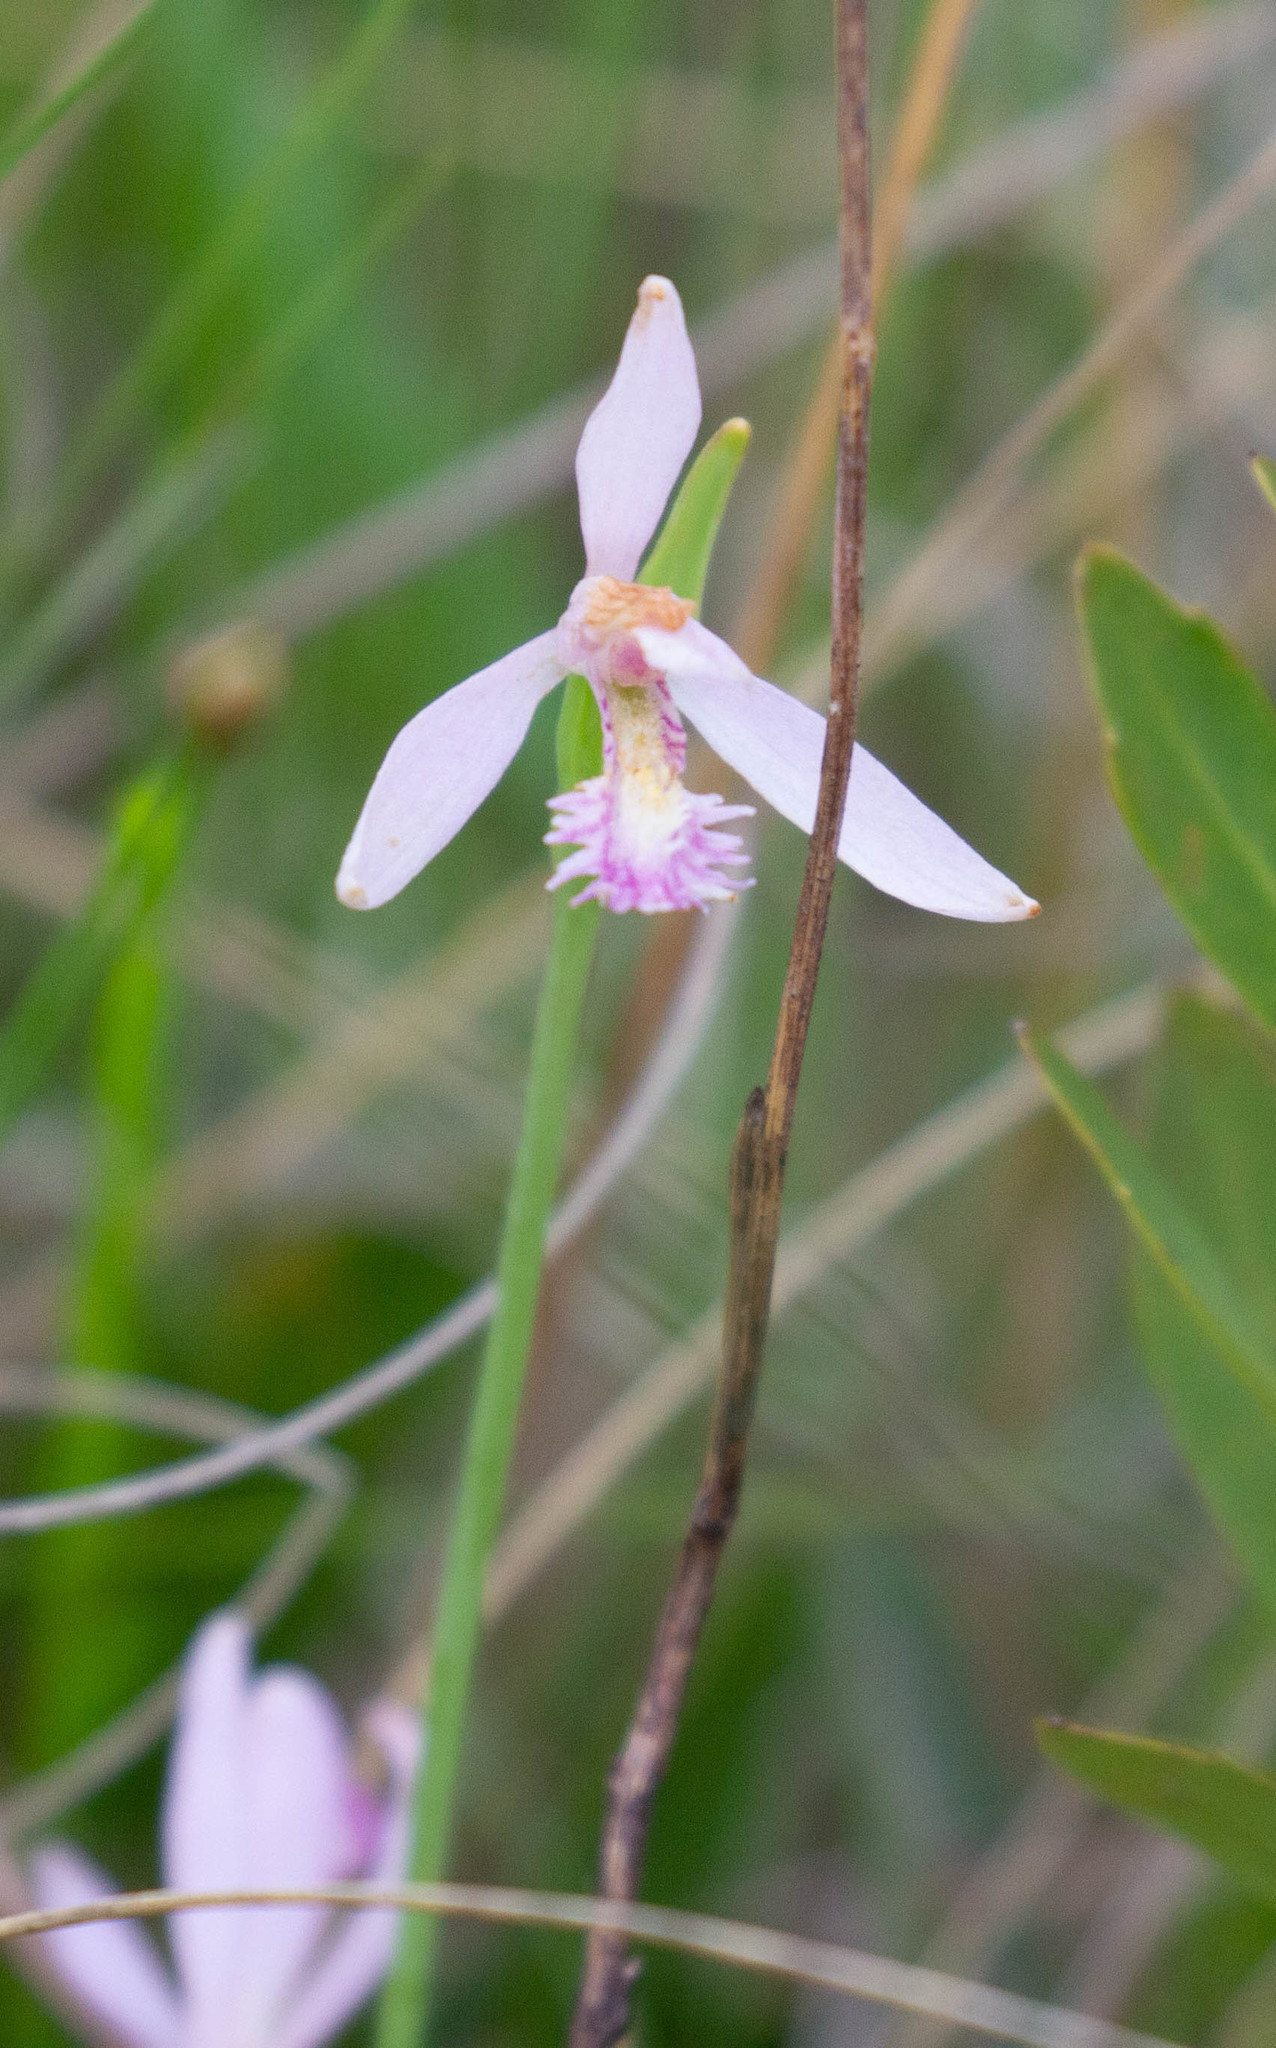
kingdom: Plantae
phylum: Tracheophyta
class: Liliopsida
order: Asparagales
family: Orchidaceae
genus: Pogonia
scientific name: Pogonia ophioglossoides
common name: Rose pogonia
